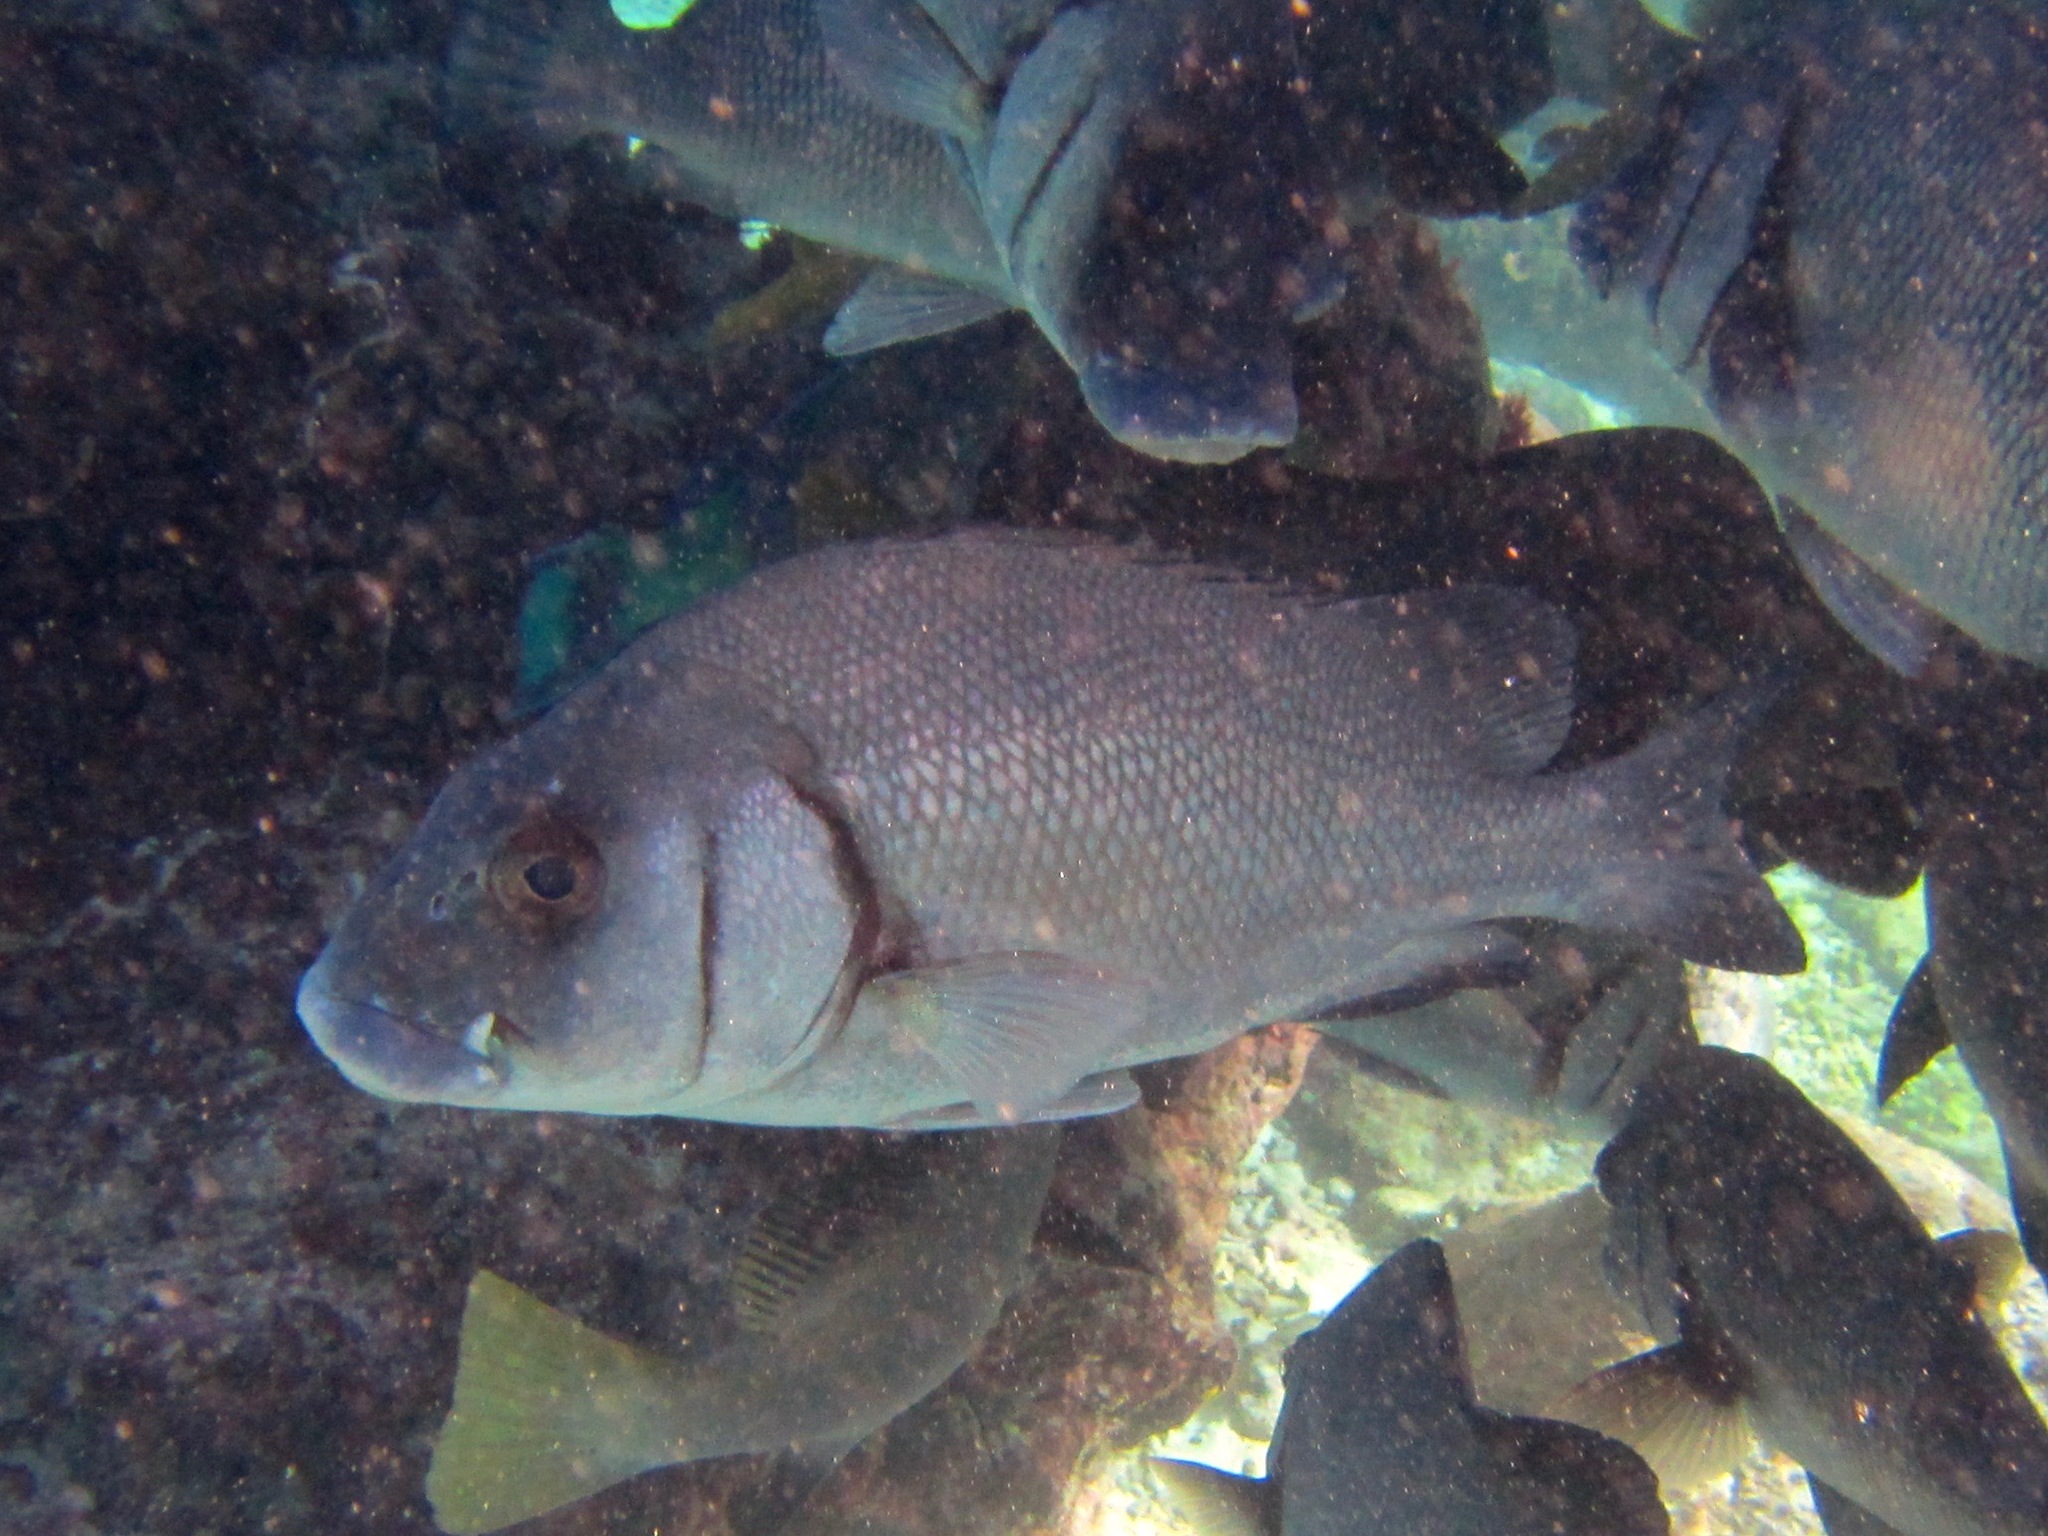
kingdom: Animalia
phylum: Chordata
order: Perciformes
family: Haemulidae
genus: Plectorhinchus
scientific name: Plectorhinchus gibbosus
